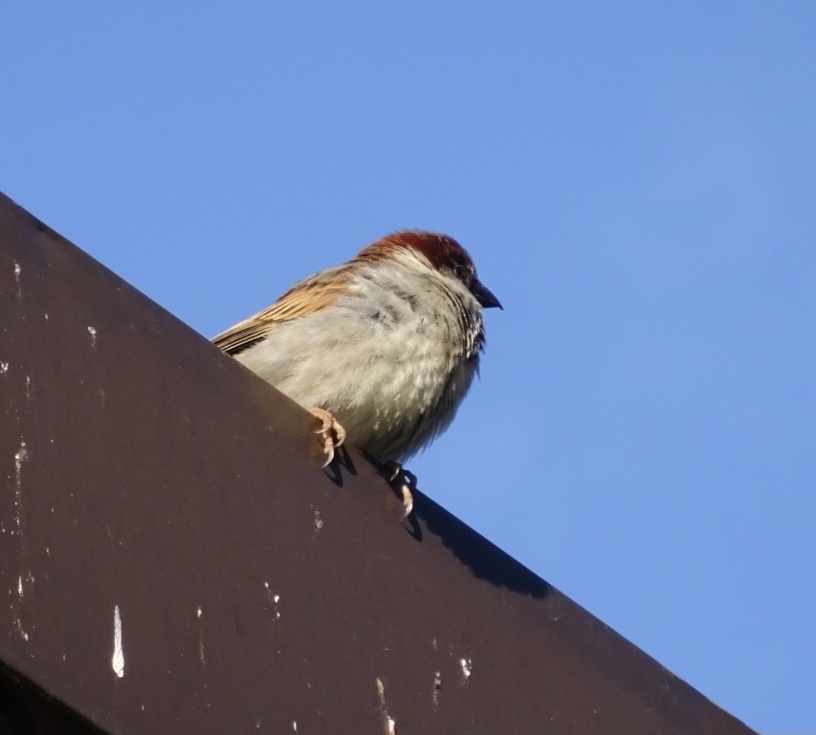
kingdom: Animalia
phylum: Chordata
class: Aves
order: Passeriformes
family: Passeridae
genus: Passer
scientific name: Passer domesticus
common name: House sparrow
